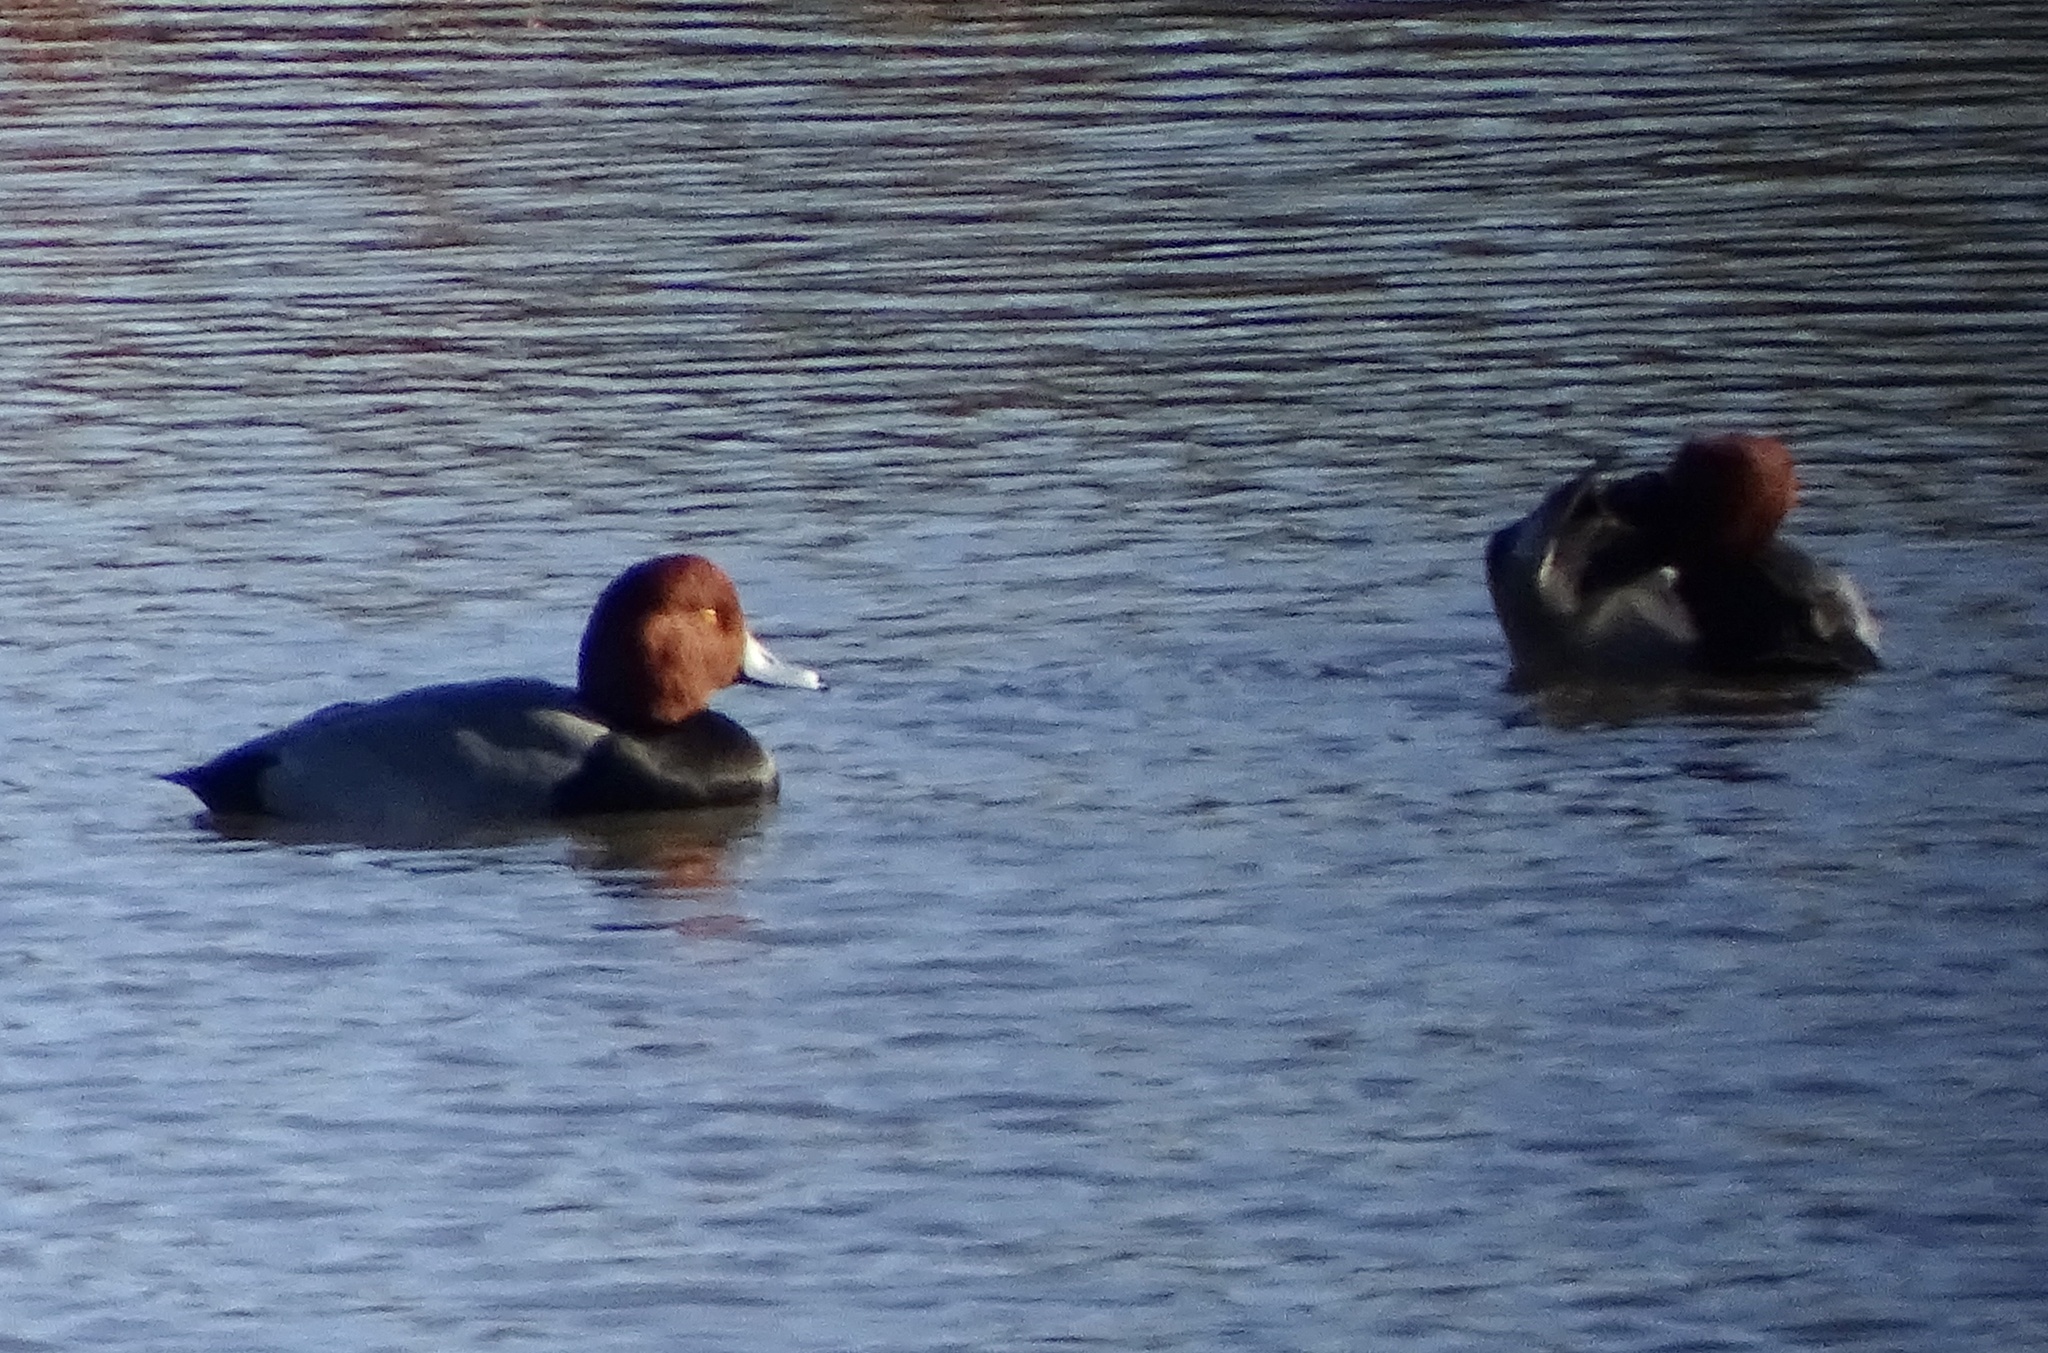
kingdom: Animalia
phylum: Chordata
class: Aves
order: Anseriformes
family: Anatidae
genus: Aythya
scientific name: Aythya americana
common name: Redhead
